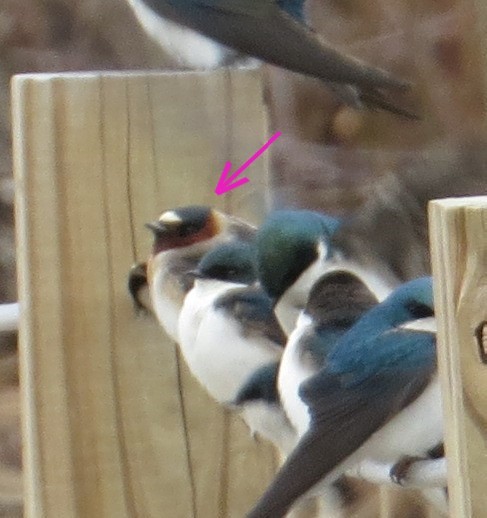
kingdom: Animalia
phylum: Chordata
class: Aves
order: Passeriformes
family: Hirundinidae
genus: Petrochelidon
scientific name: Petrochelidon pyrrhonota
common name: American cliff swallow
